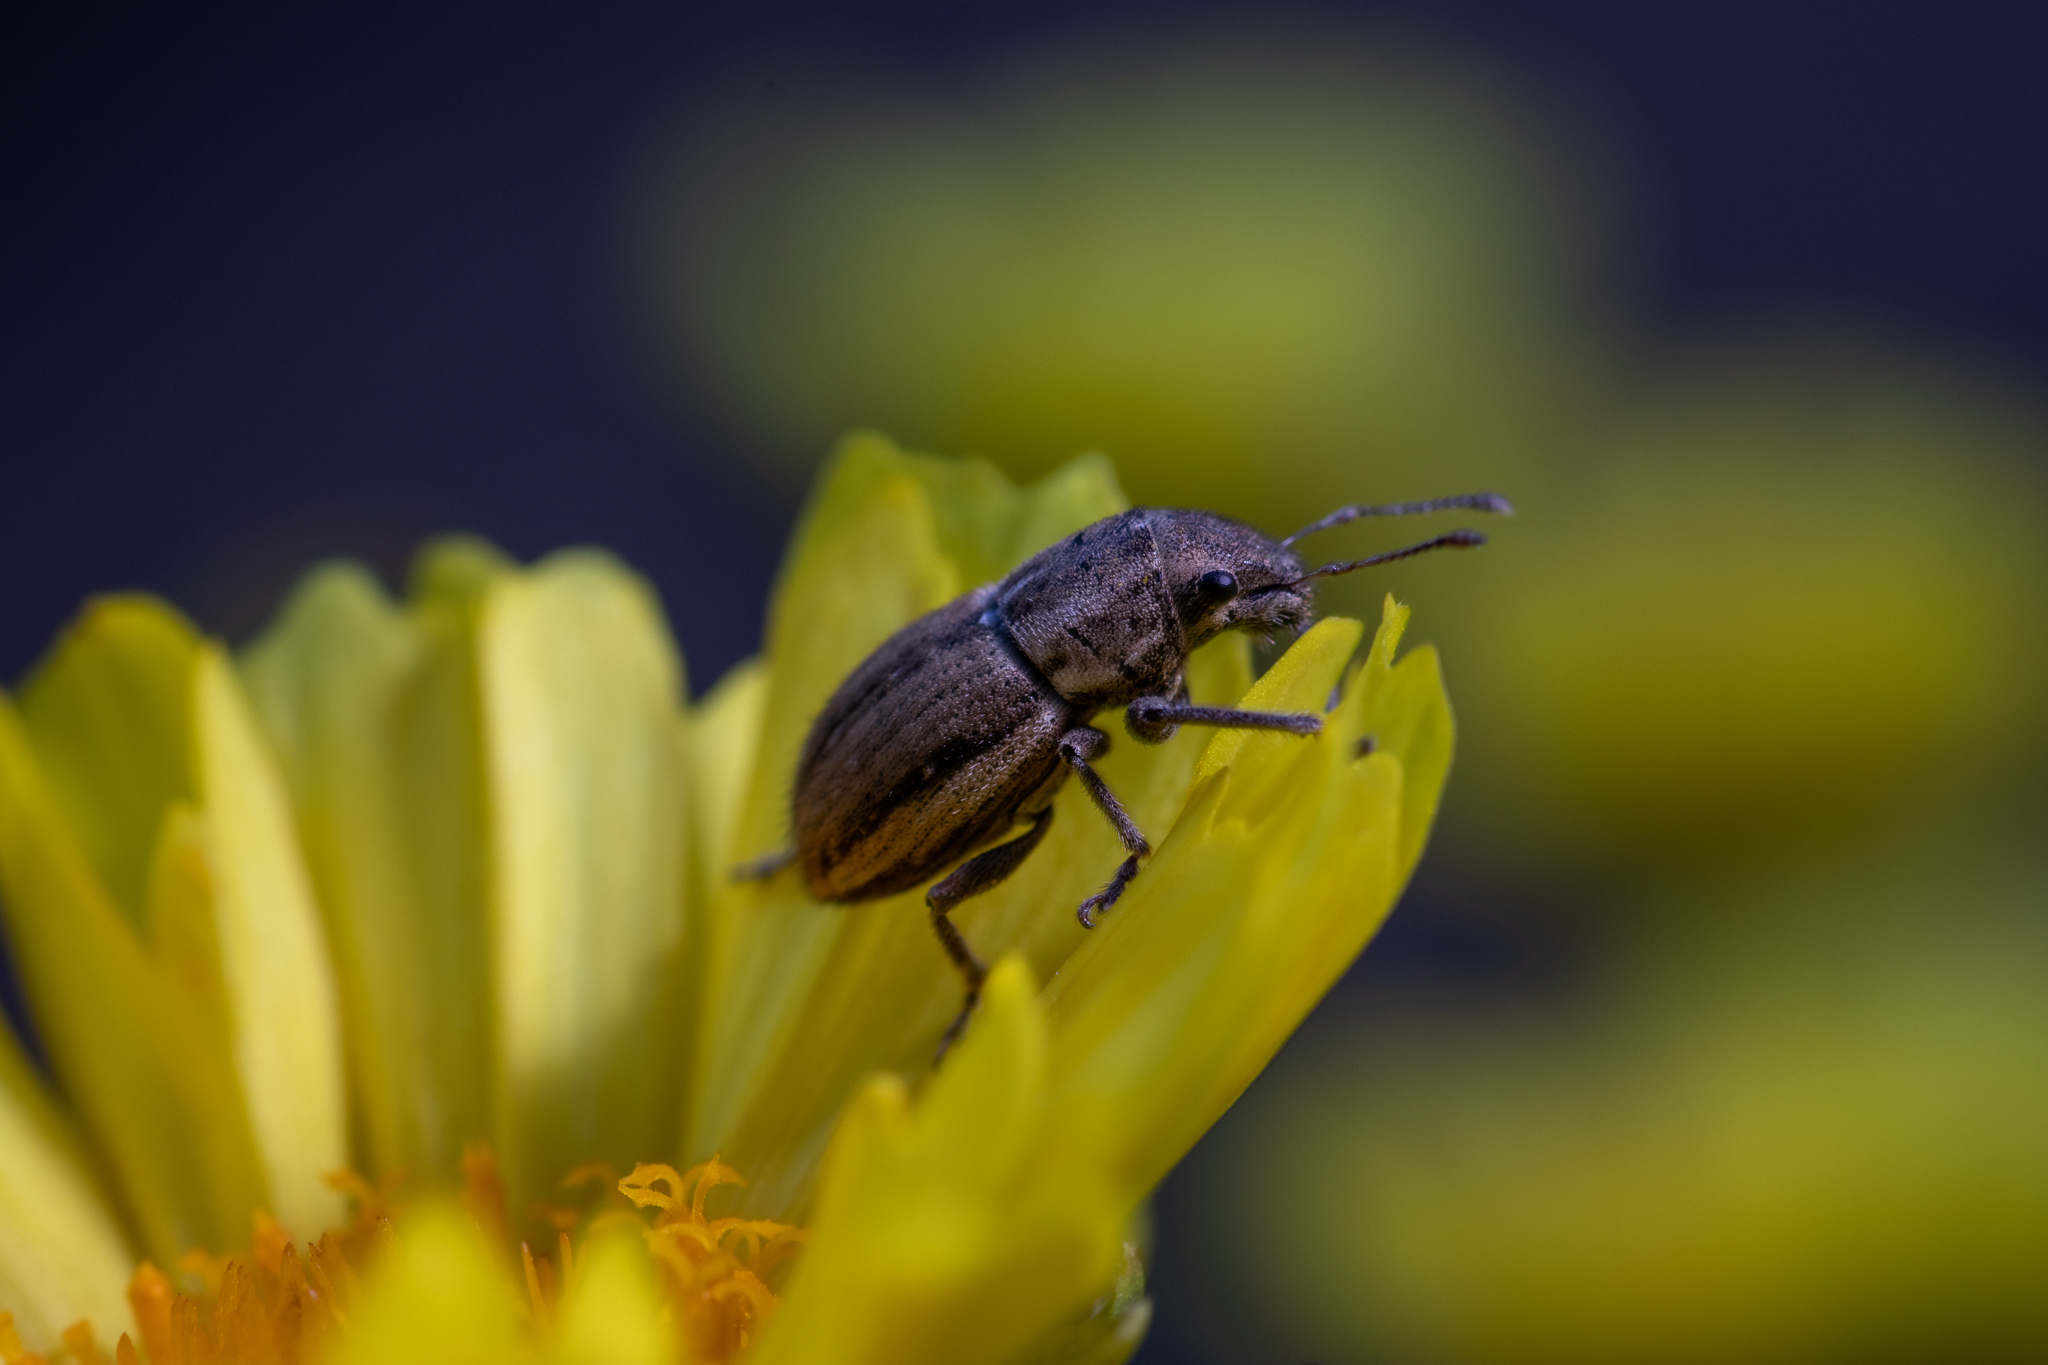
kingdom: Animalia
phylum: Arthropoda
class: Insecta
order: Coleoptera
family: Curculionidae
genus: Naupactus
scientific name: Naupactus peregrinus
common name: Whitefringed beetle
